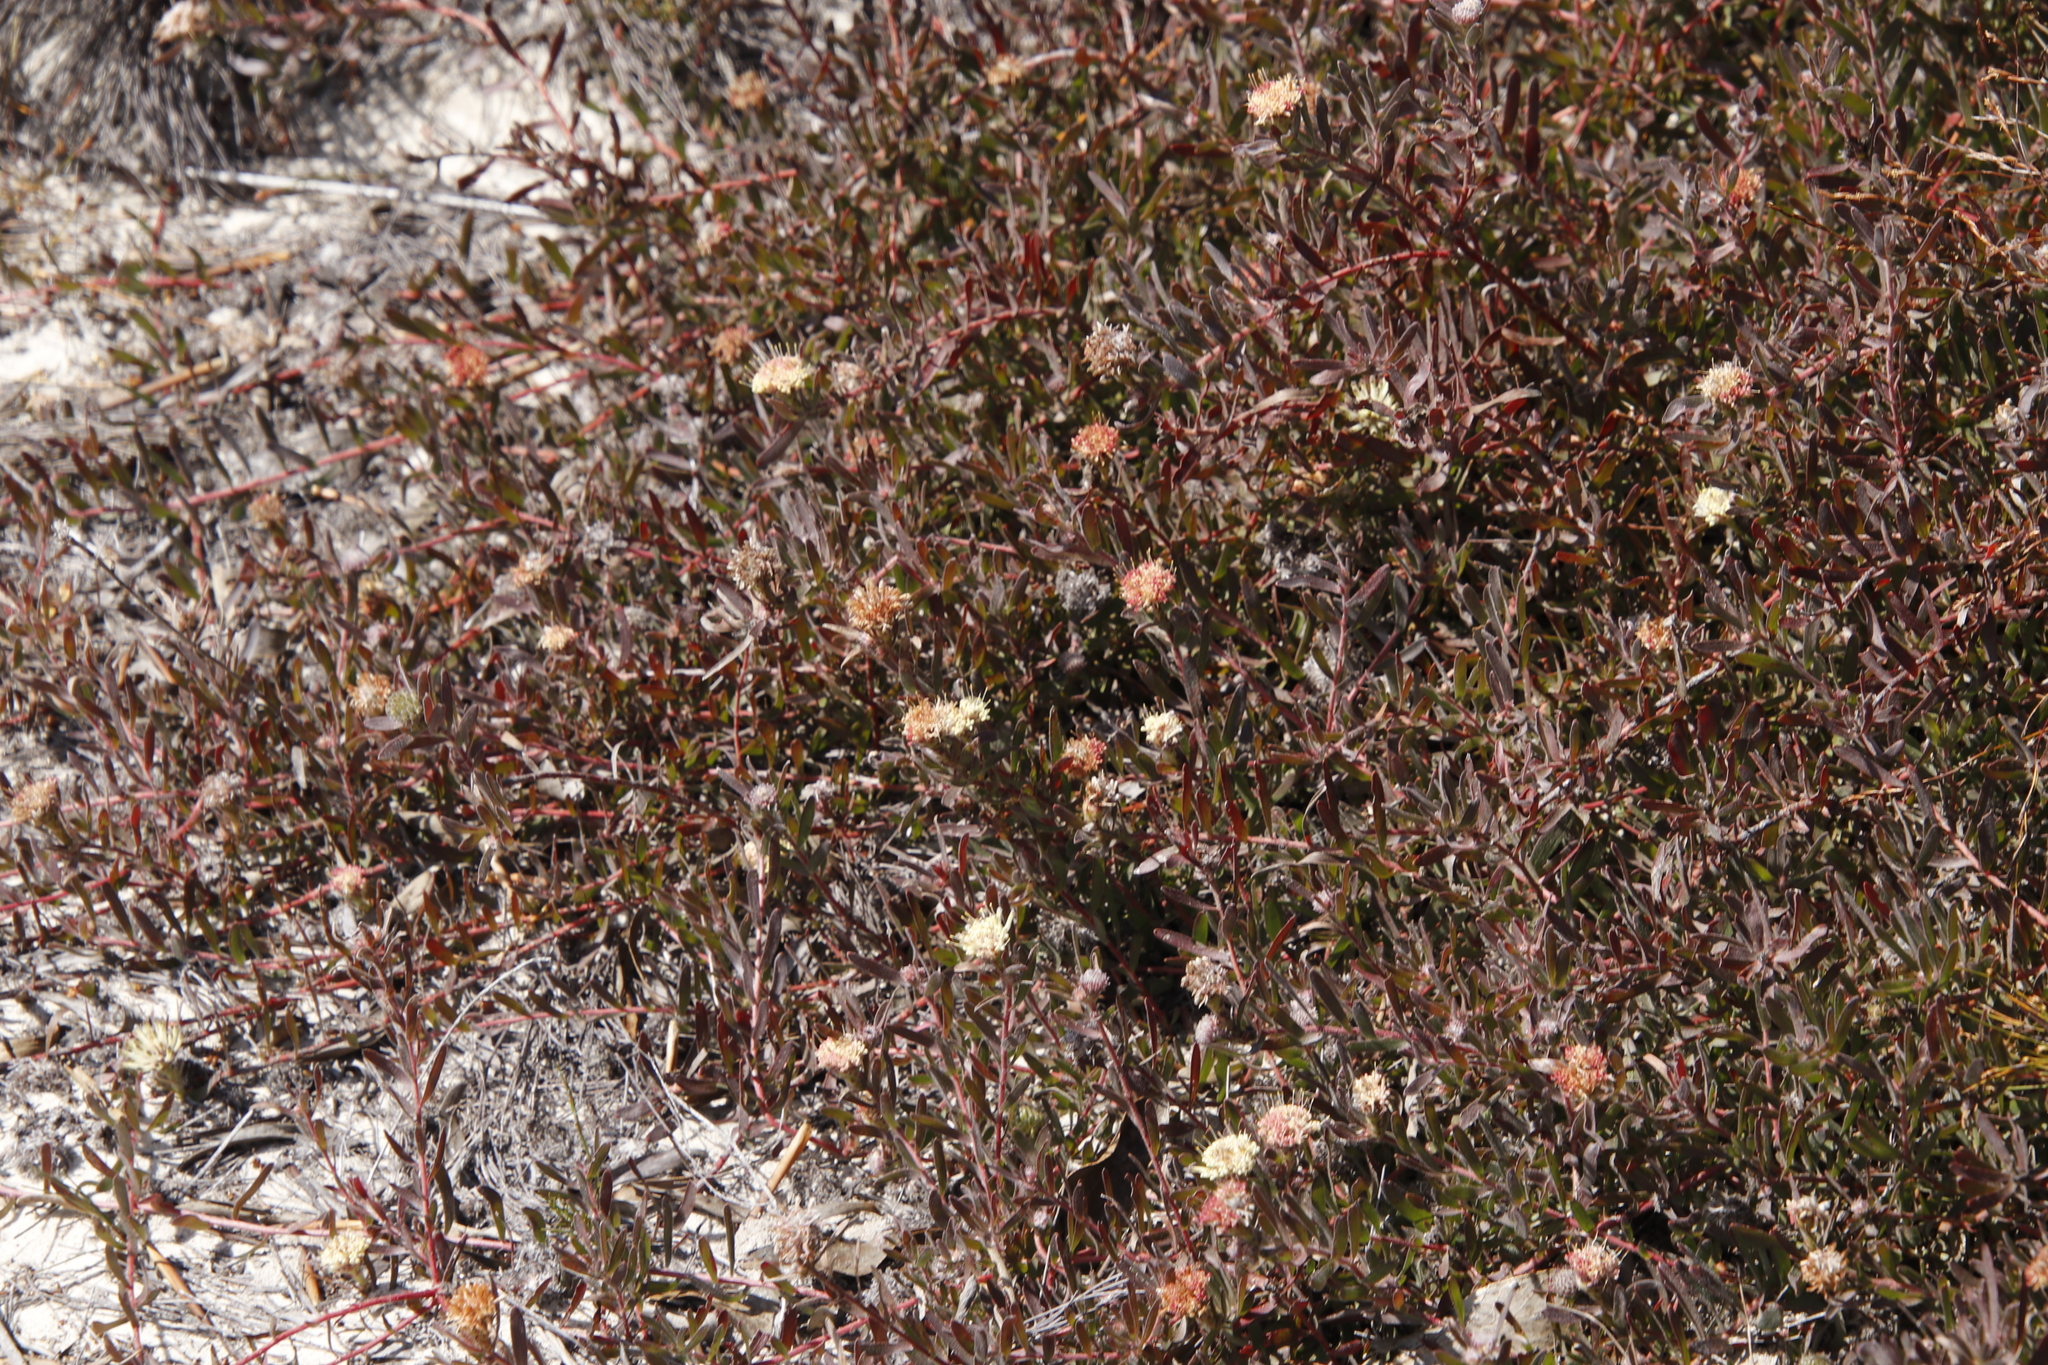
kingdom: Plantae
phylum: Tracheophyta
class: Magnoliopsida
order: Proteales
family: Proteaceae
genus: Leucospermum
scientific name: Leucospermum pedunculatum
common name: White-trailing pincushion
